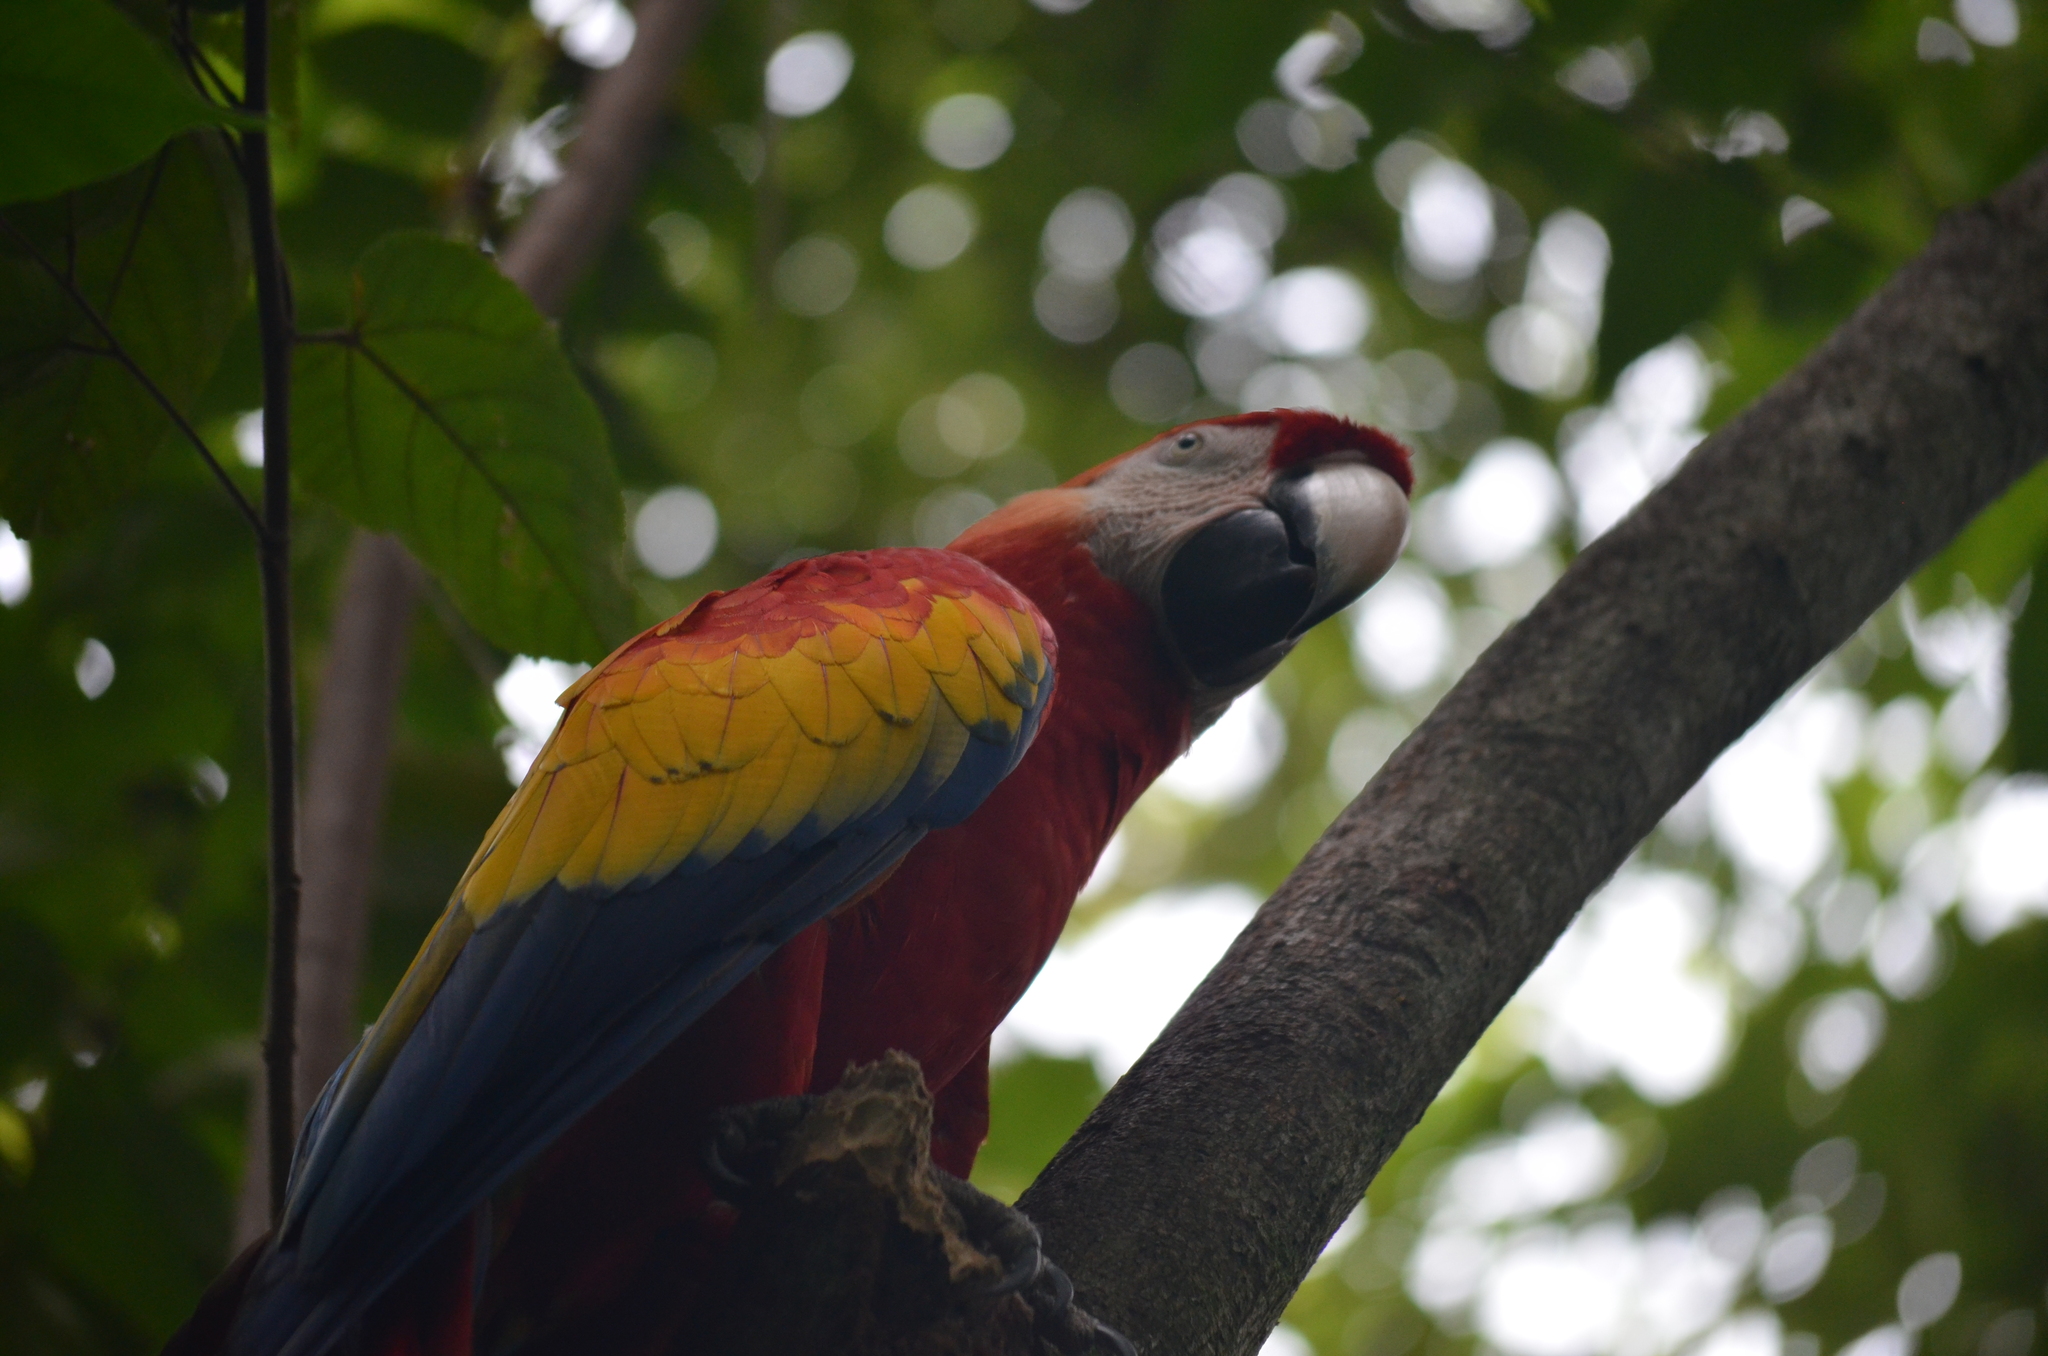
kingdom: Animalia
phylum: Chordata
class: Aves
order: Psittaciformes
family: Psittacidae
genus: Ara
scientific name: Ara macao
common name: Scarlet macaw
